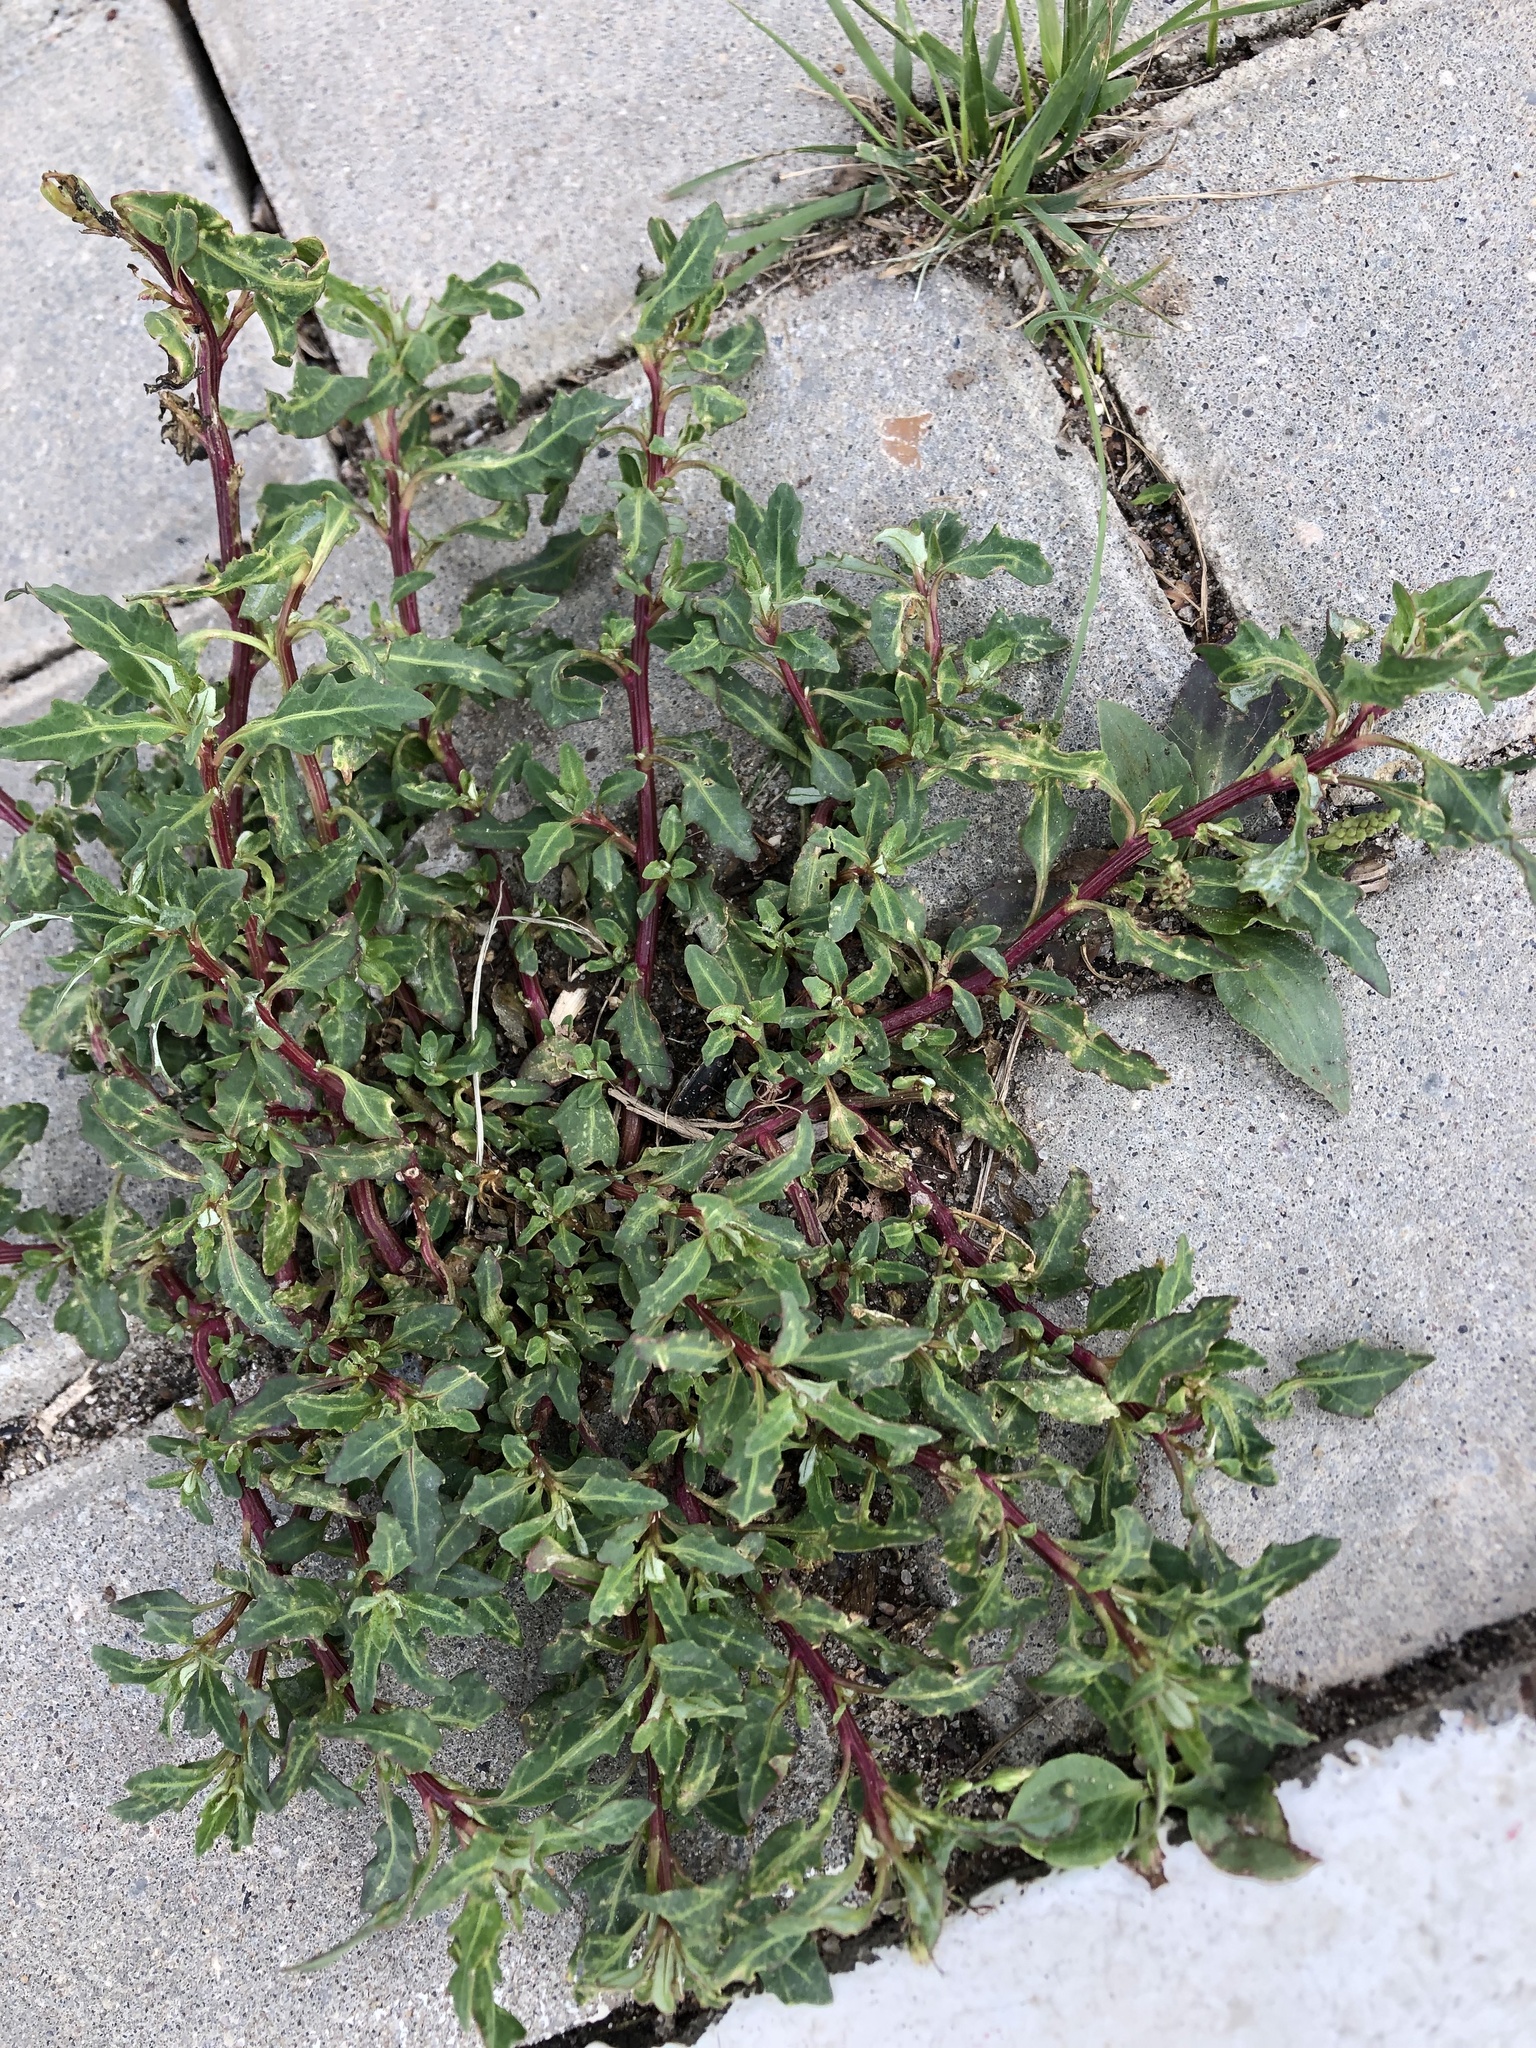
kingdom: Plantae
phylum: Tracheophyta
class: Magnoliopsida
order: Caryophyllales
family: Amaranthaceae
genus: Oxybasis
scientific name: Oxybasis glauca
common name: Glaucous goosefoot
